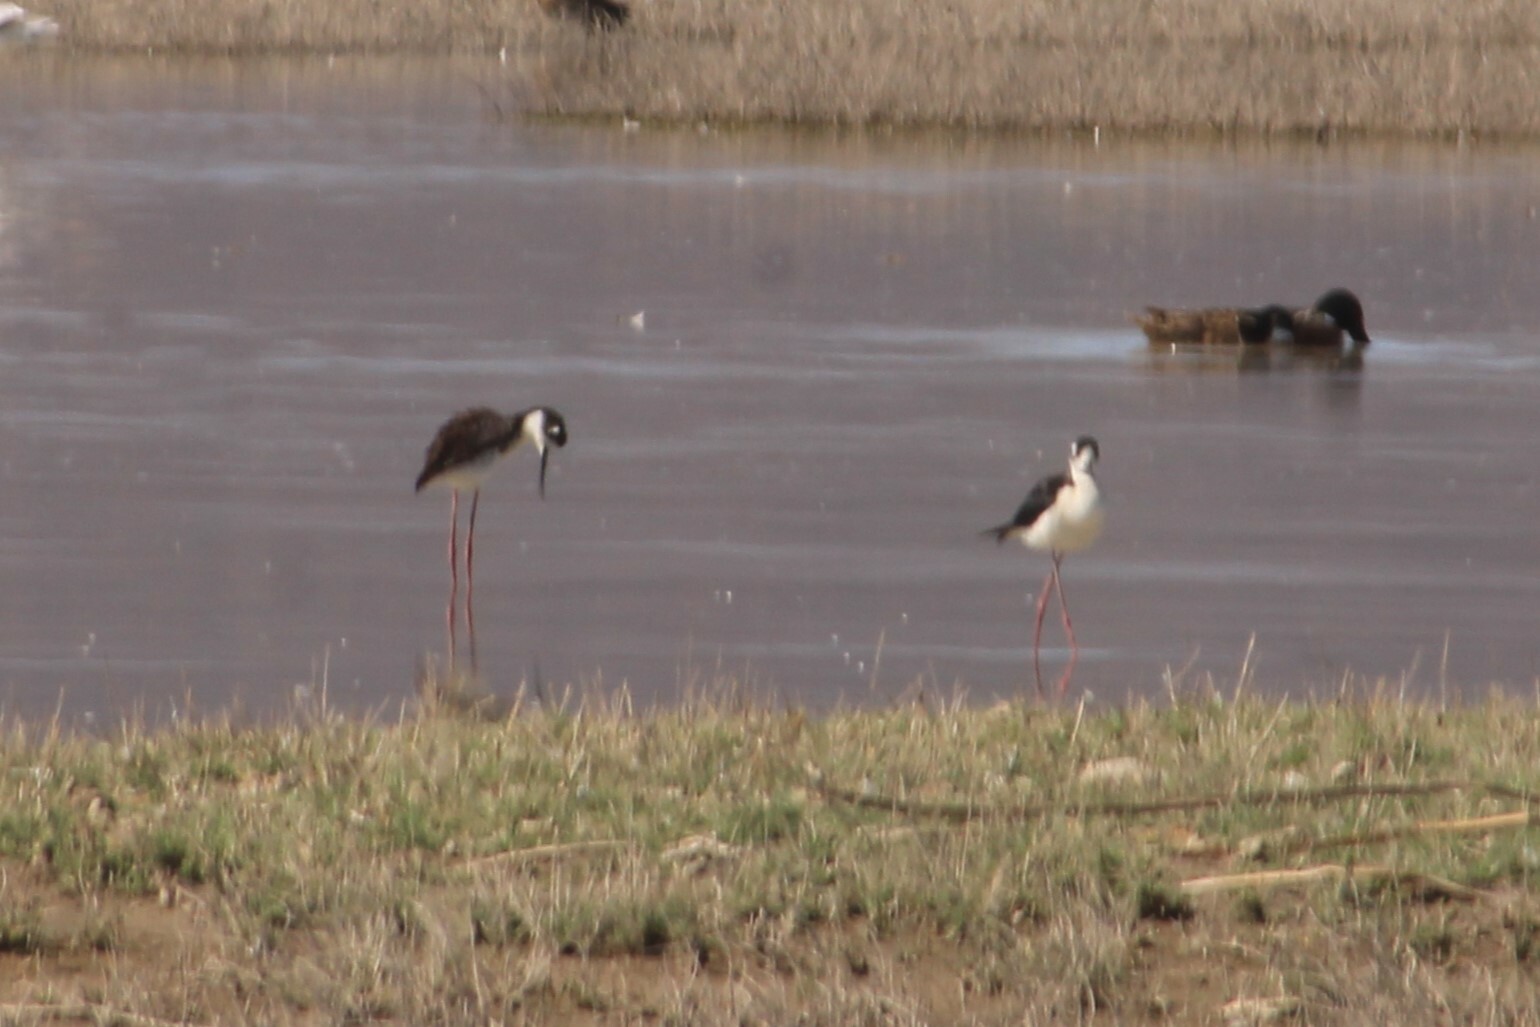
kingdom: Animalia
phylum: Chordata
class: Aves
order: Charadriiformes
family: Recurvirostridae
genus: Himantopus
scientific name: Himantopus mexicanus
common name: Black-necked stilt
